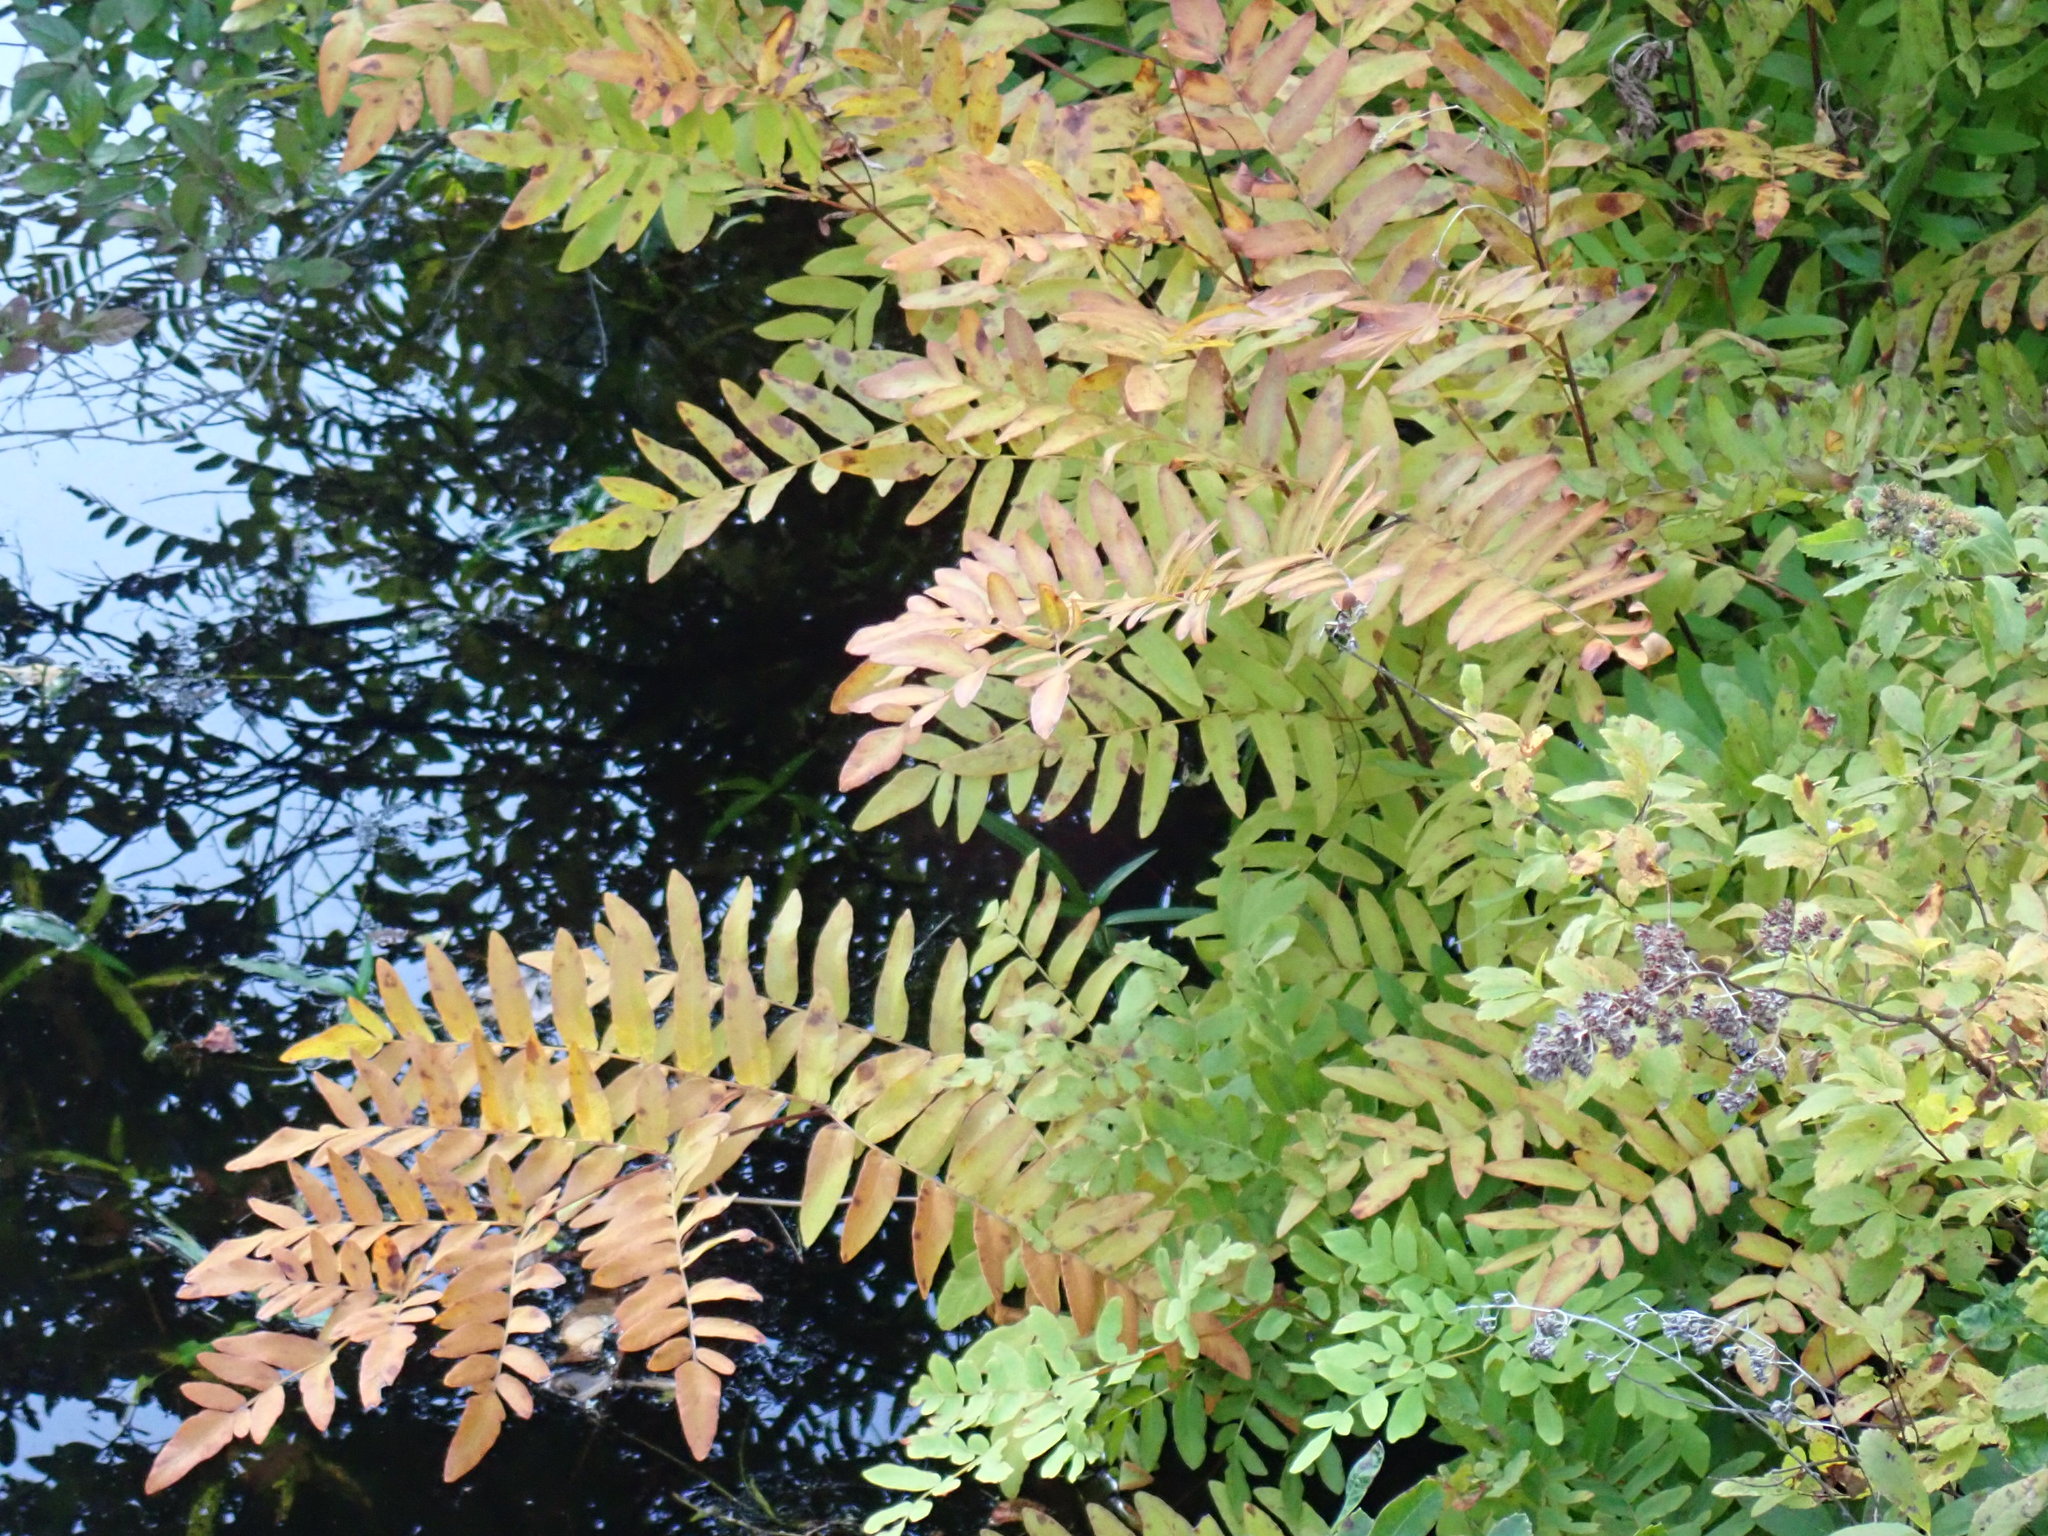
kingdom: Plantae
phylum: Tracheophyta
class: Polypodiopsida
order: Osmundales
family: Osmundaceae
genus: Osmunda
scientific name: Osmunda spectabilis
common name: American royal fern
